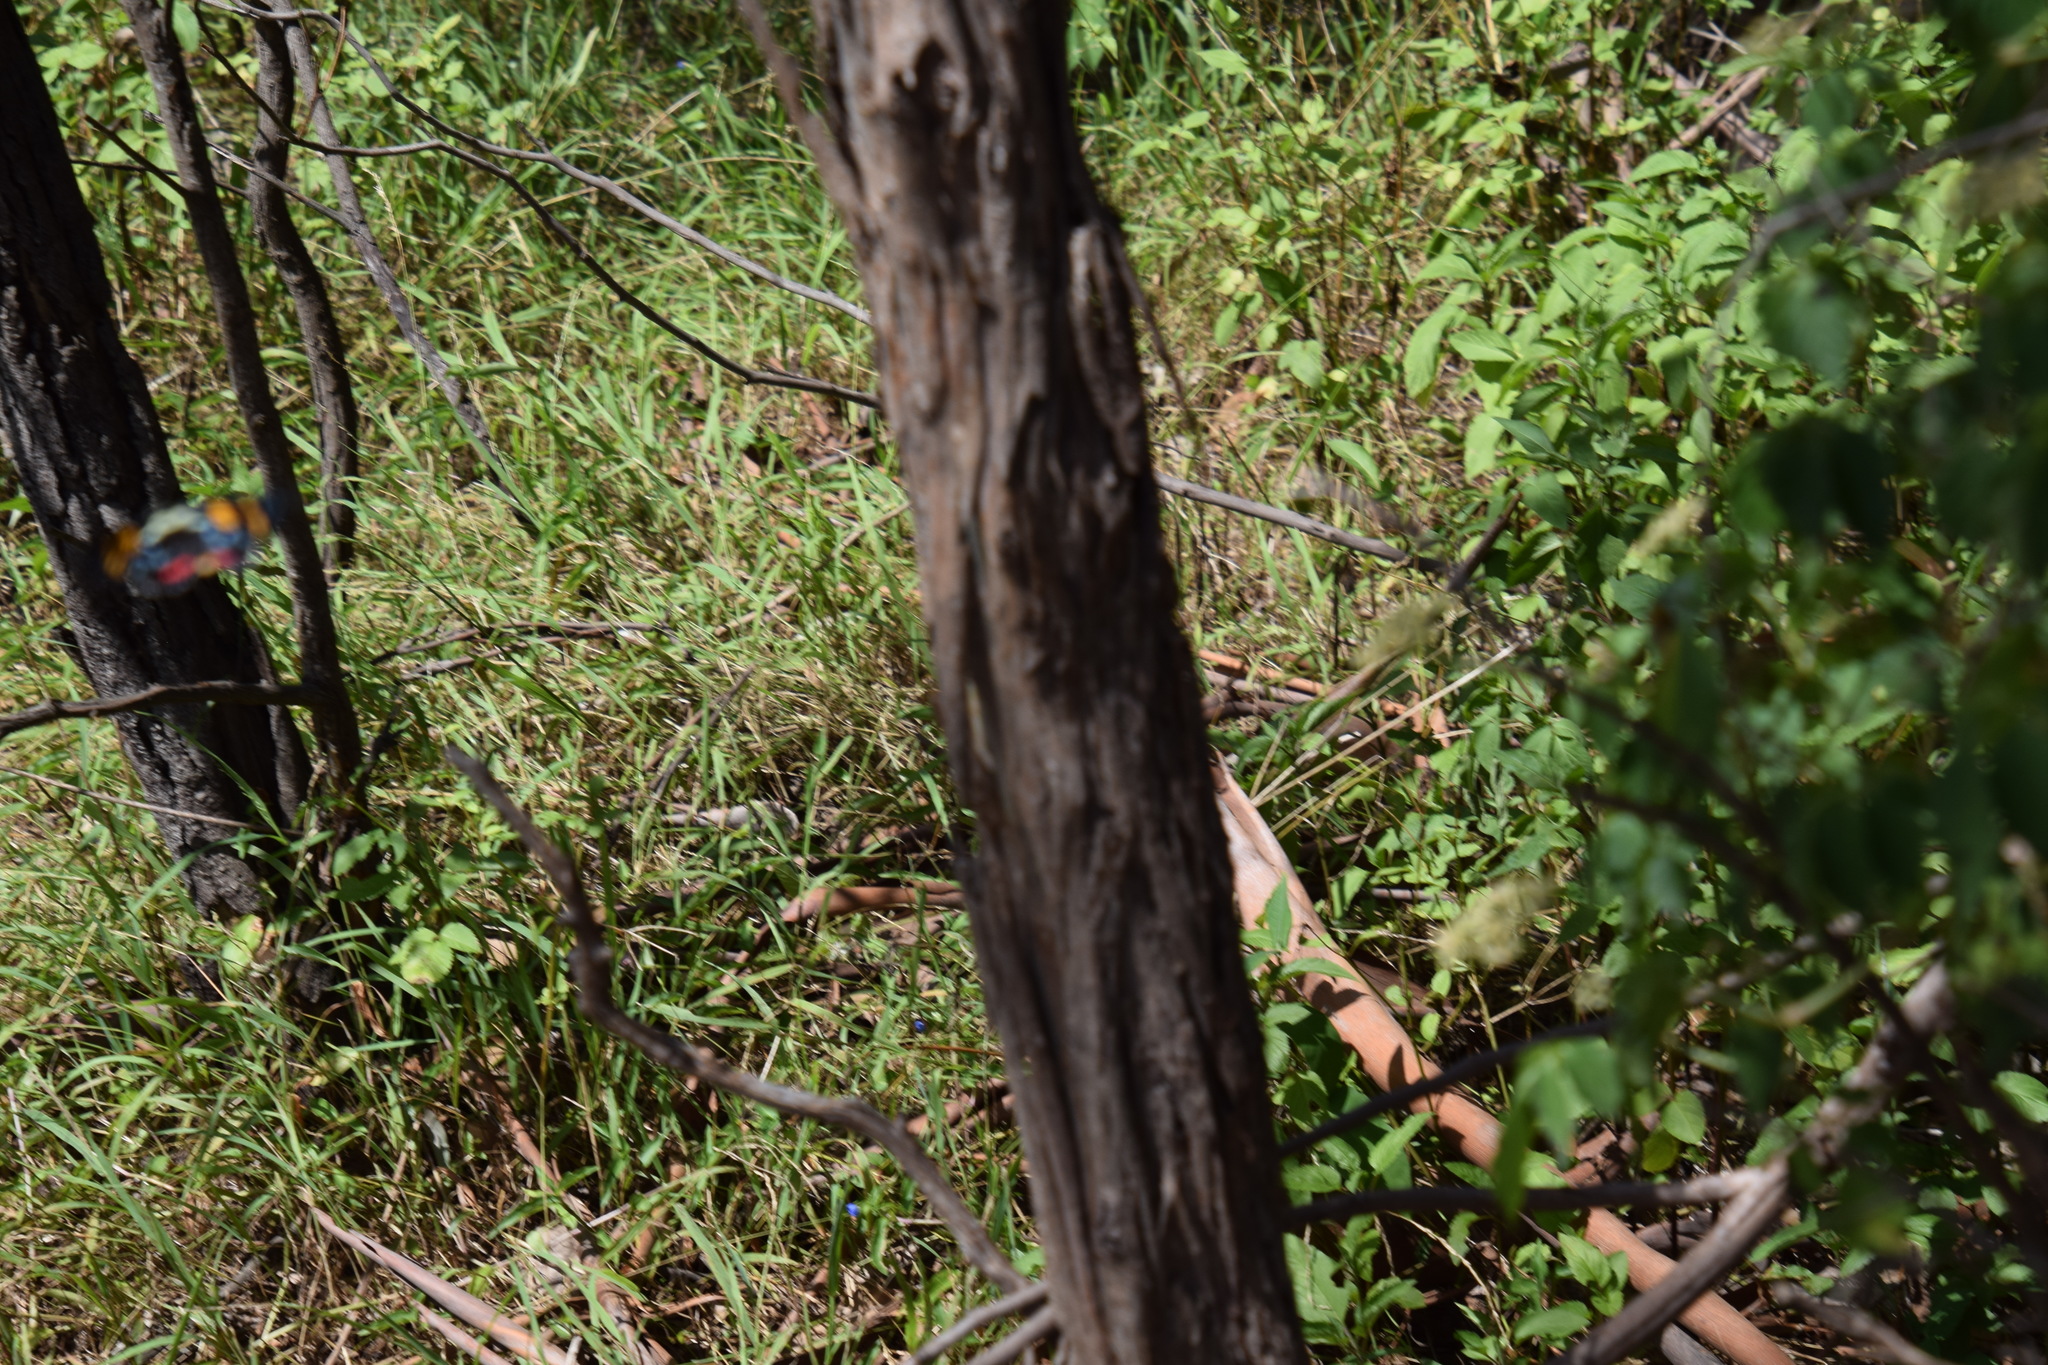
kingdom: Animalia
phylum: Arthropoda
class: Insecta
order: Lepidoptera
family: Noctuidae
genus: Agarista
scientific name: Agarista agricola
